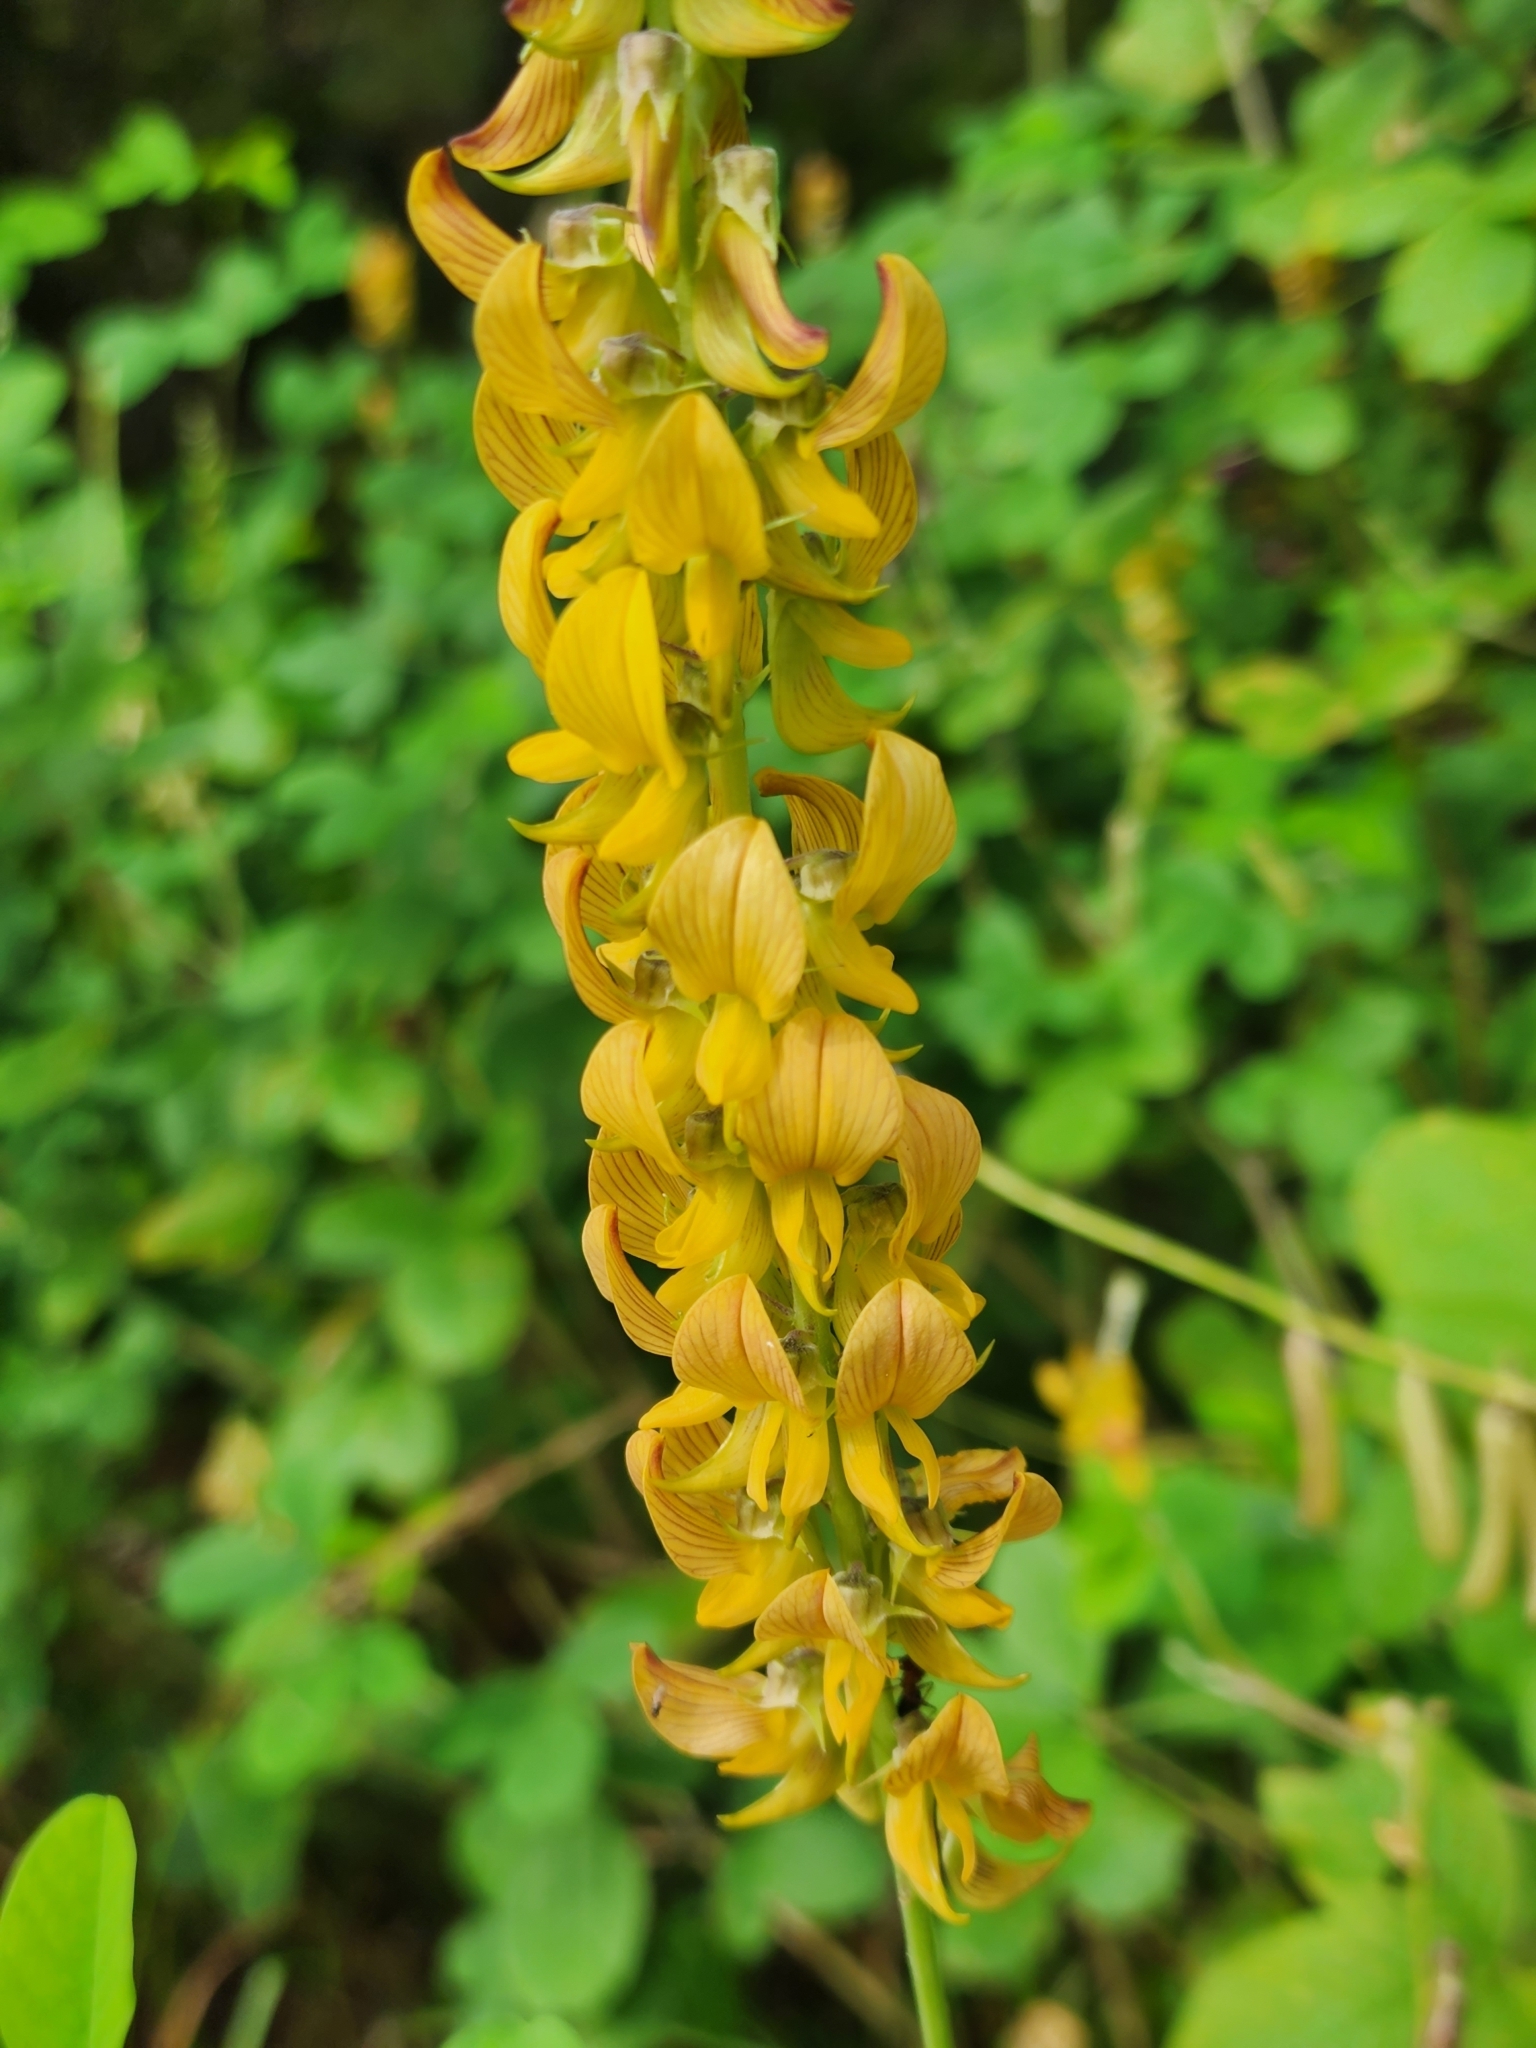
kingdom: Plantae
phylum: Tracheophyta
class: Magnoliopsida
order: Fabales
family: Fabaceae
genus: Crotalaria
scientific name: Crotalaria pallida
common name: Smooth rattlebox
